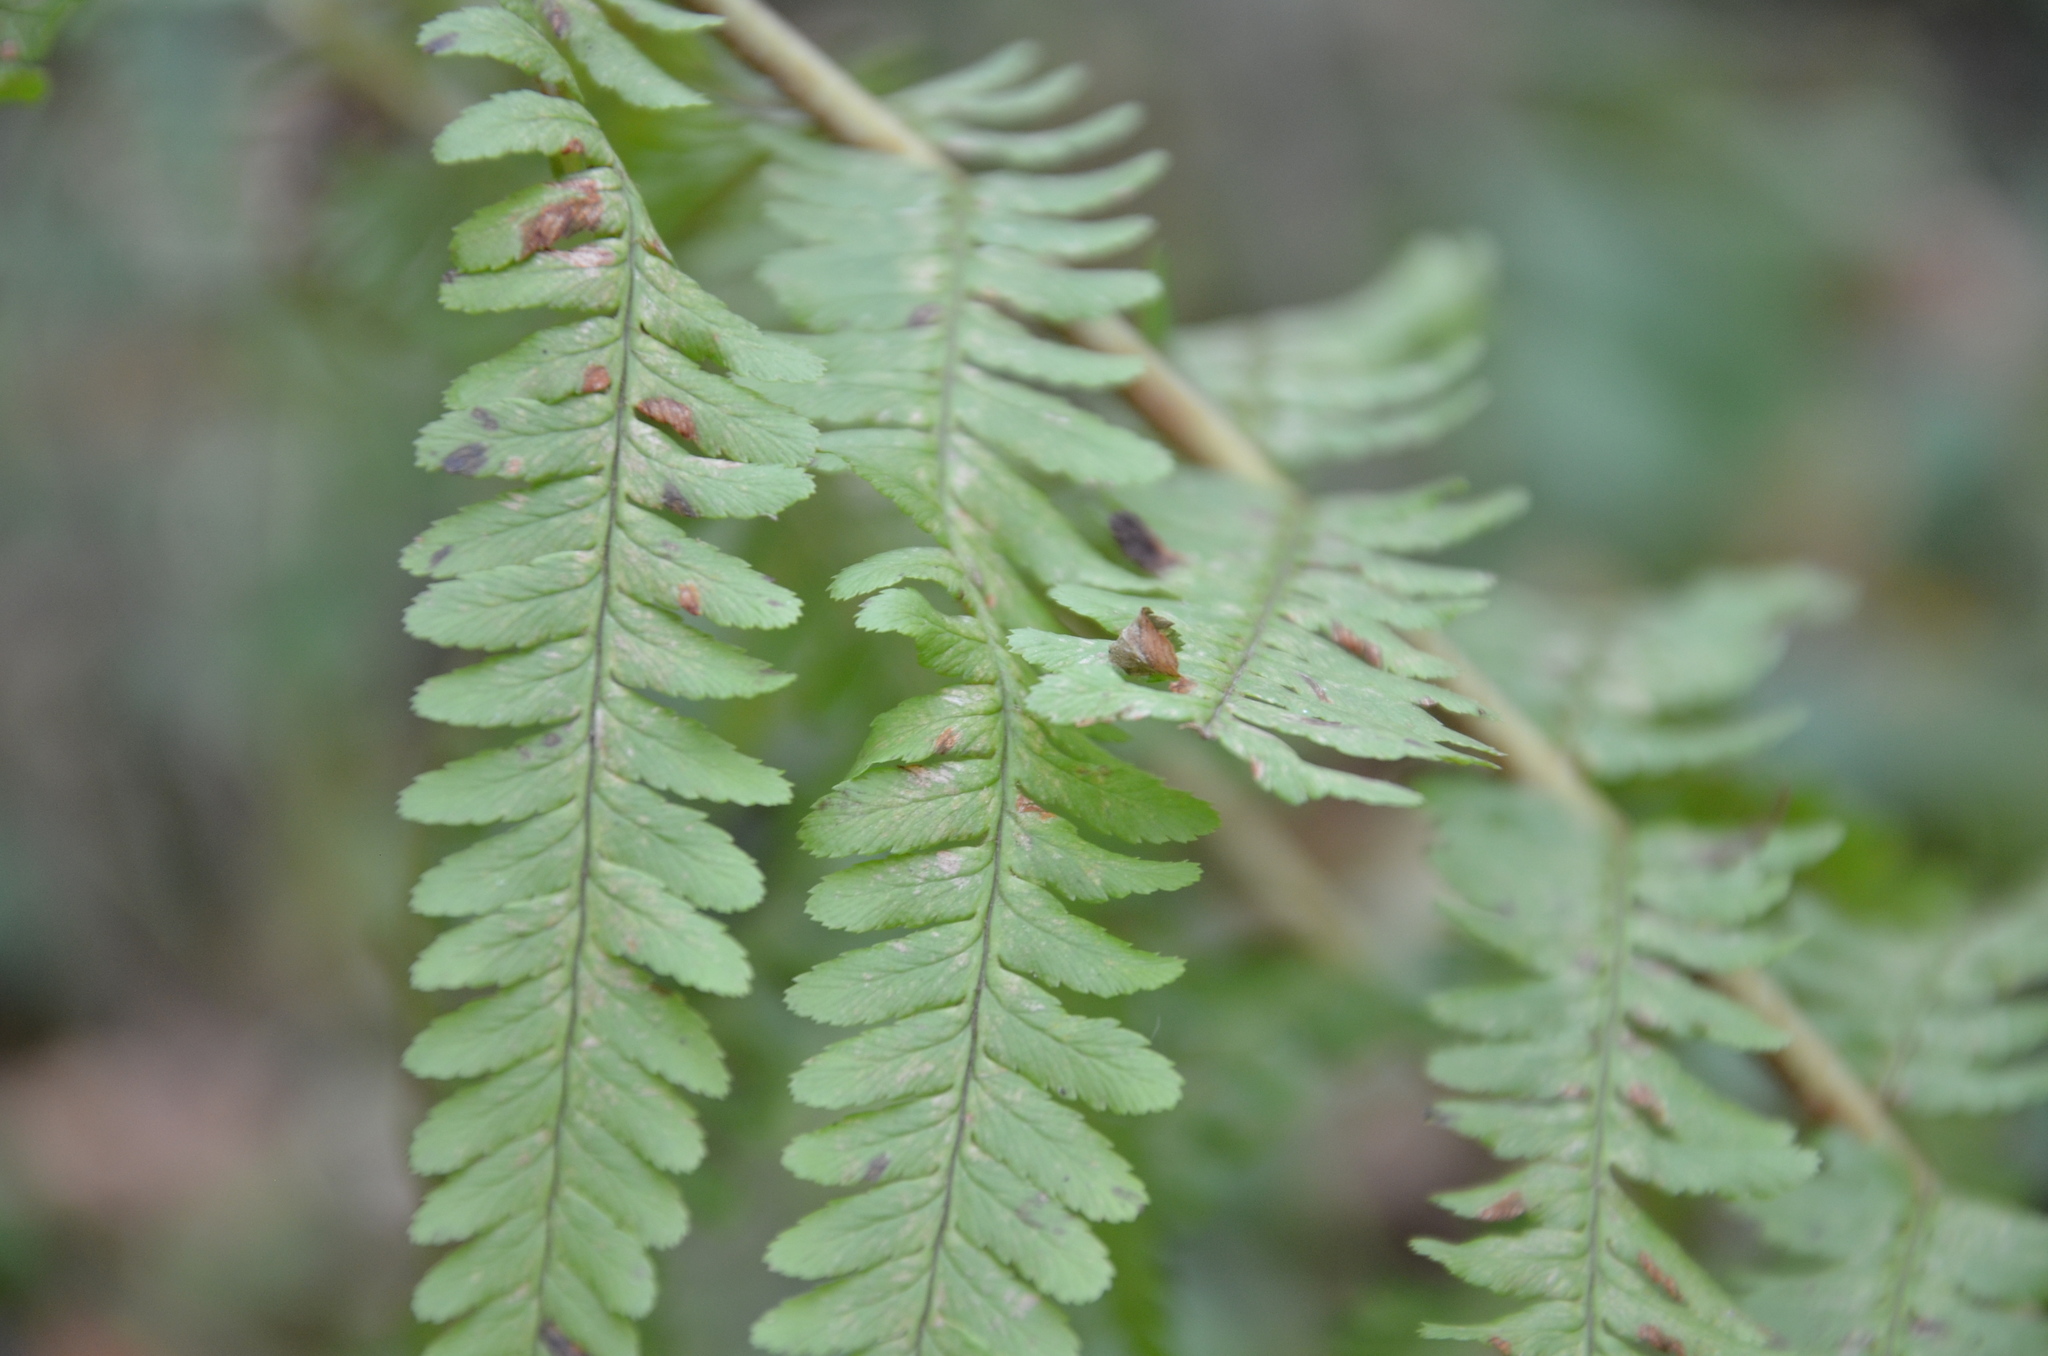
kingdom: Plantae
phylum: Tracheophyta
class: Polypodiopsida
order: Polypodiales
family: Dryopteridaceae
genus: Dryopteris
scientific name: Dryopteris filix-mas
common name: Male fern
